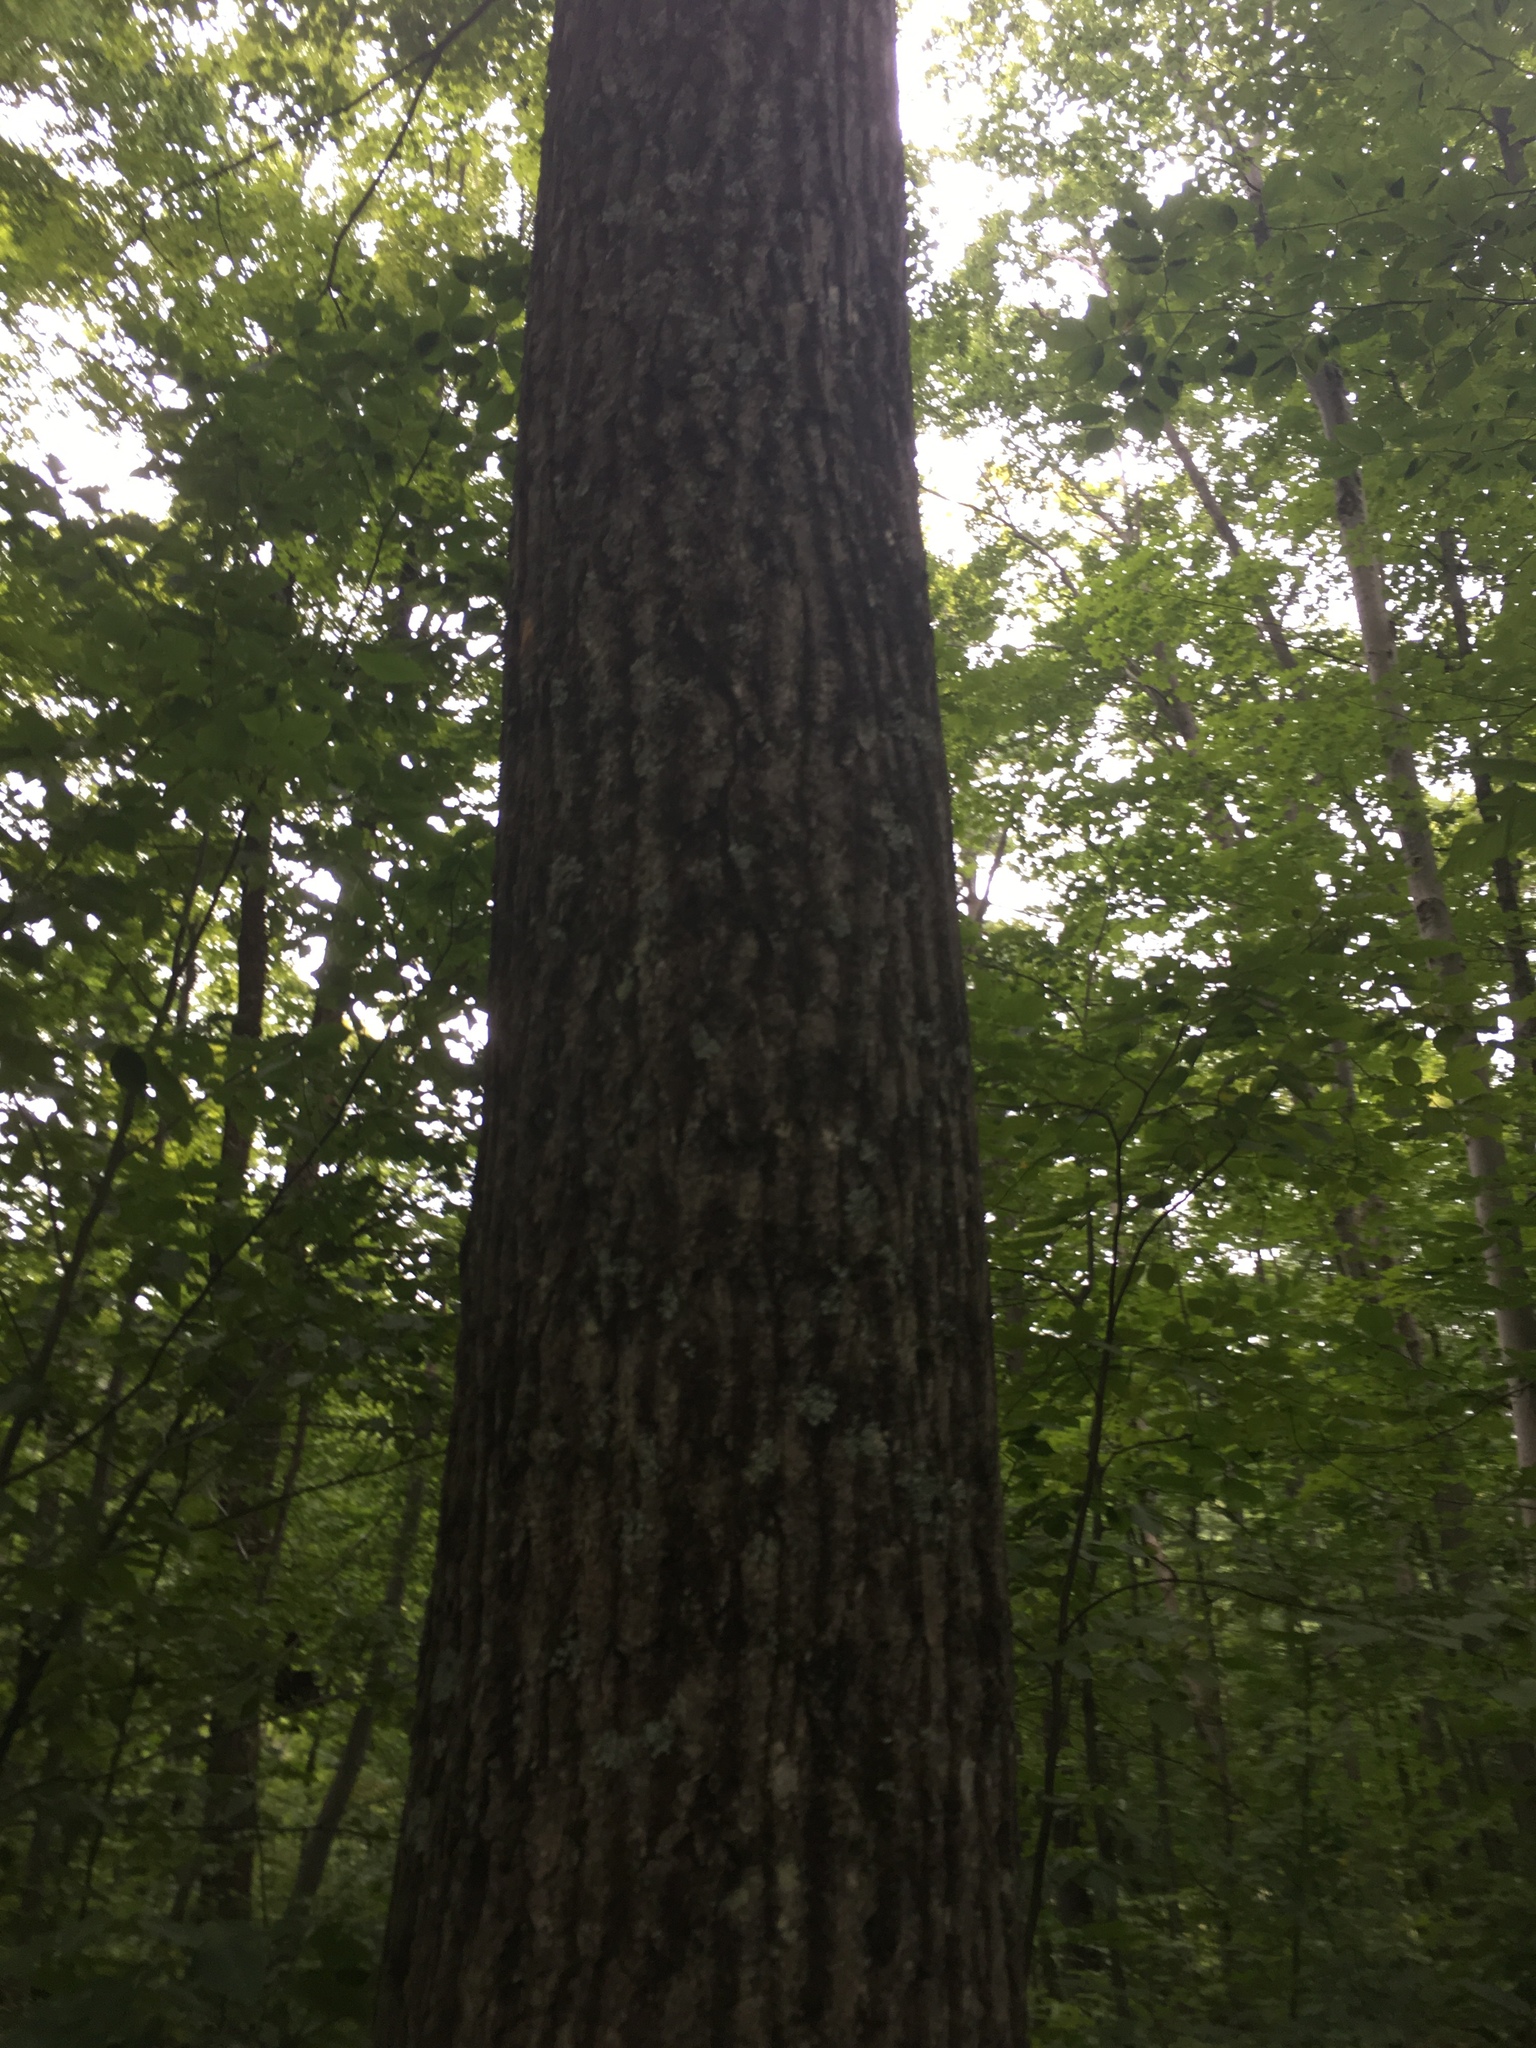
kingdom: Plantae
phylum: Tracheophyta
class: Magnoliopsida
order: Fagales
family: Fagaceae
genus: Quercus
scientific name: Quercus rubra
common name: Red oak
